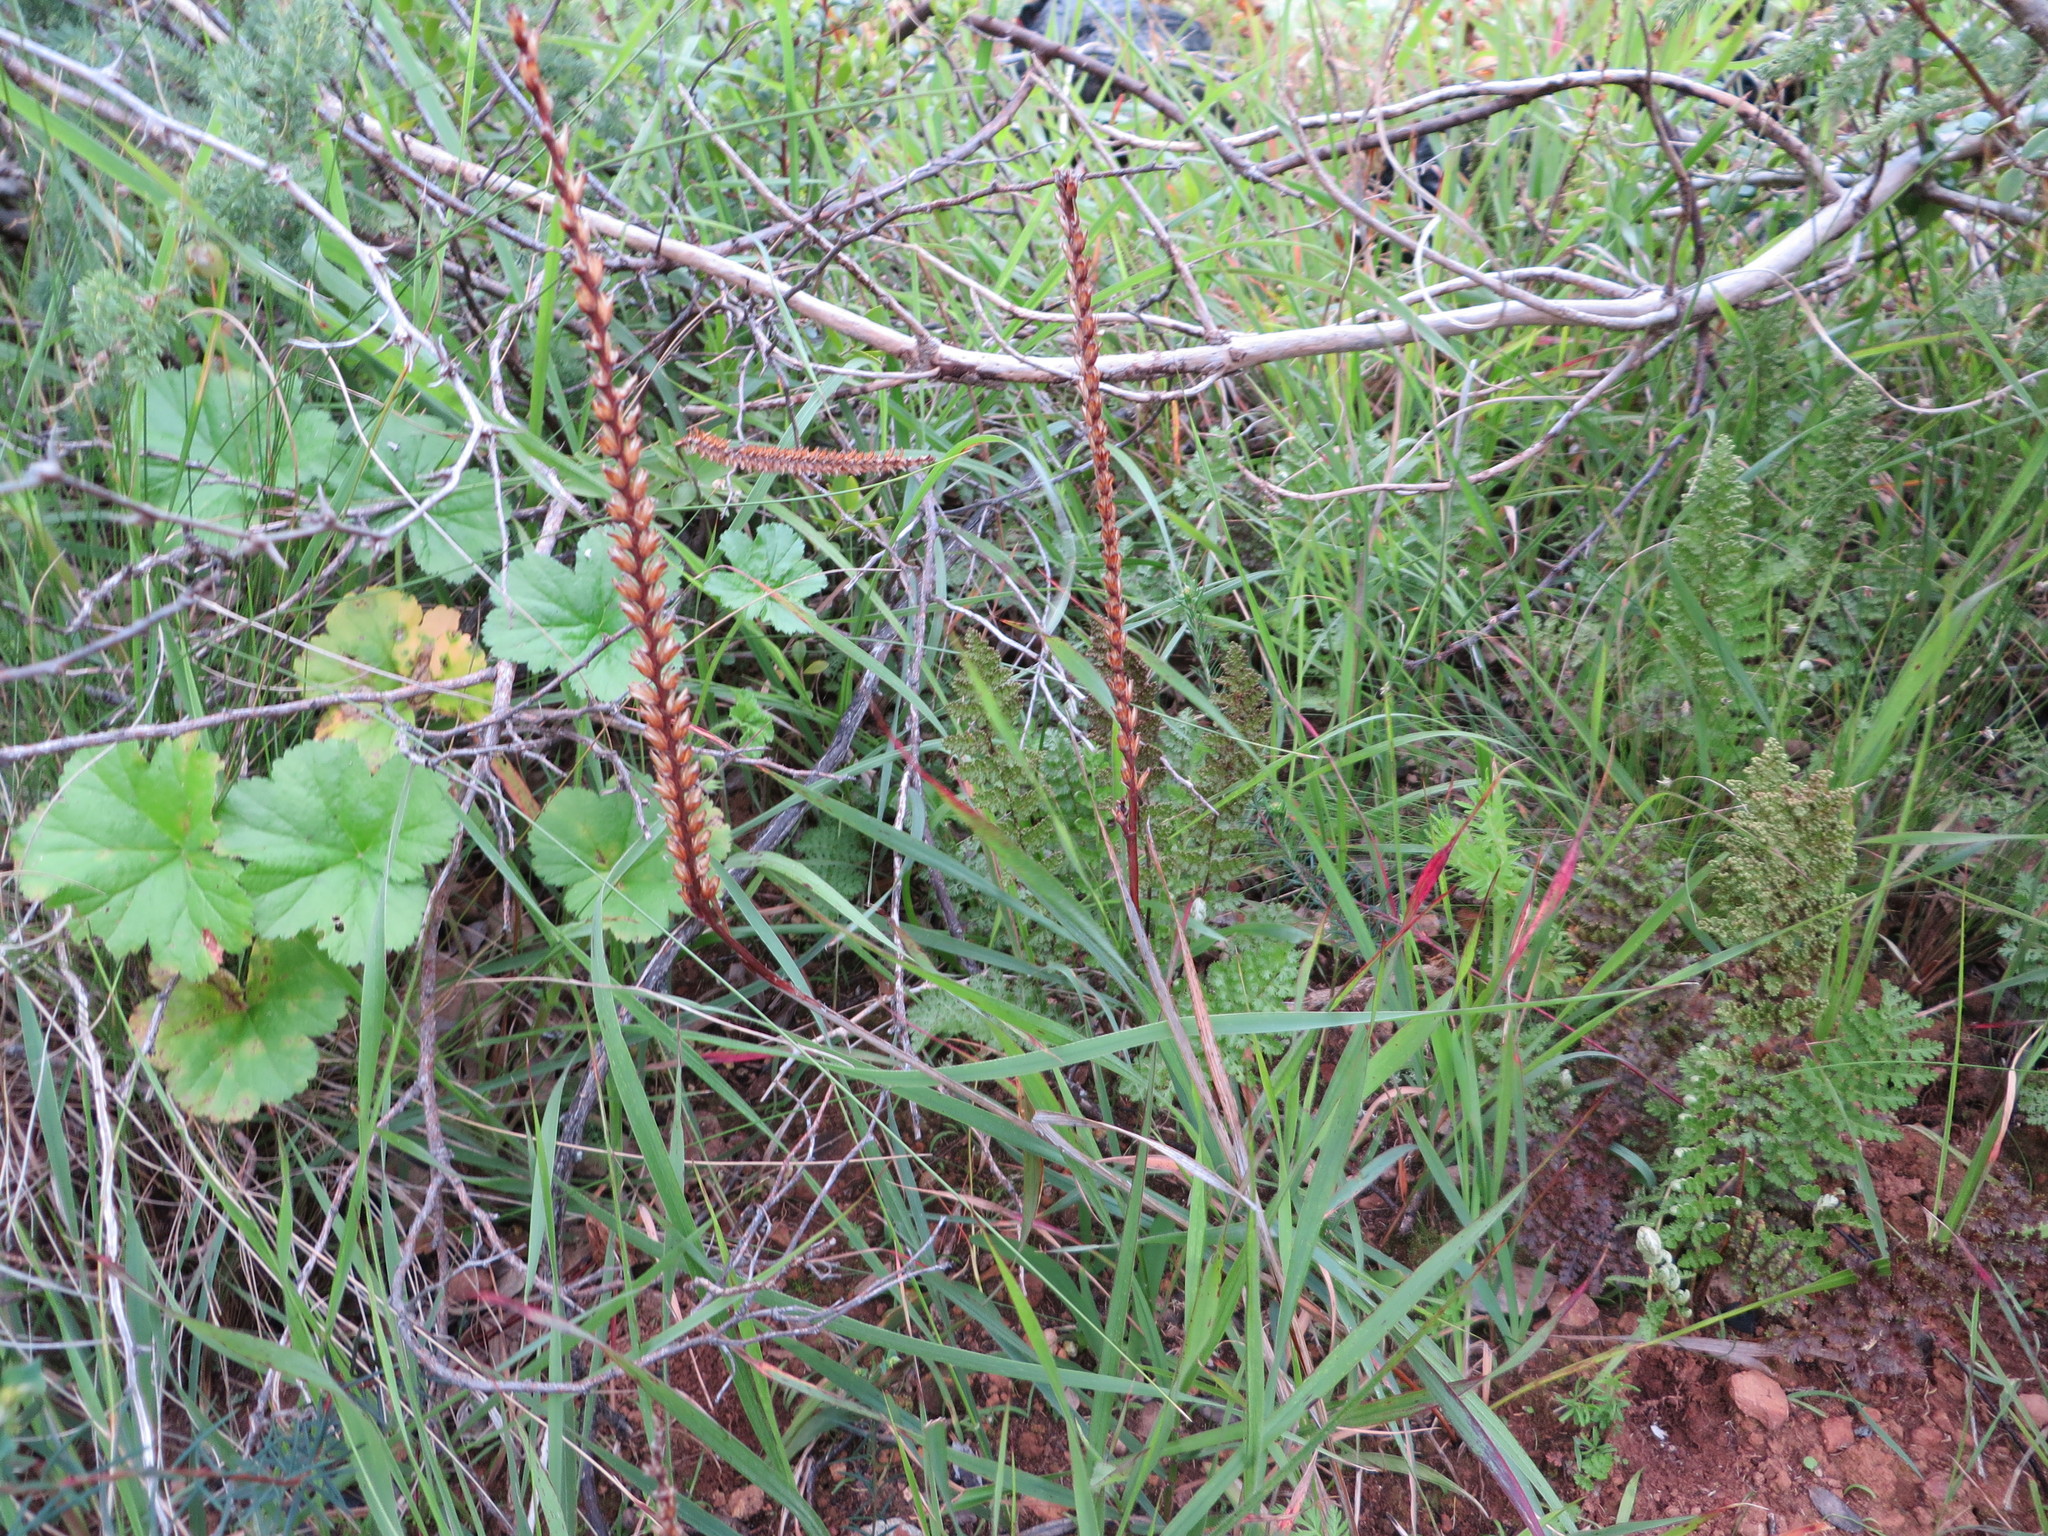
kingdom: Plantae
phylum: Tracheophyta
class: Liliopsida
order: Asparagales
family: Iridaceae
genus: Micranthus
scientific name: Micranthus alopecuroides
